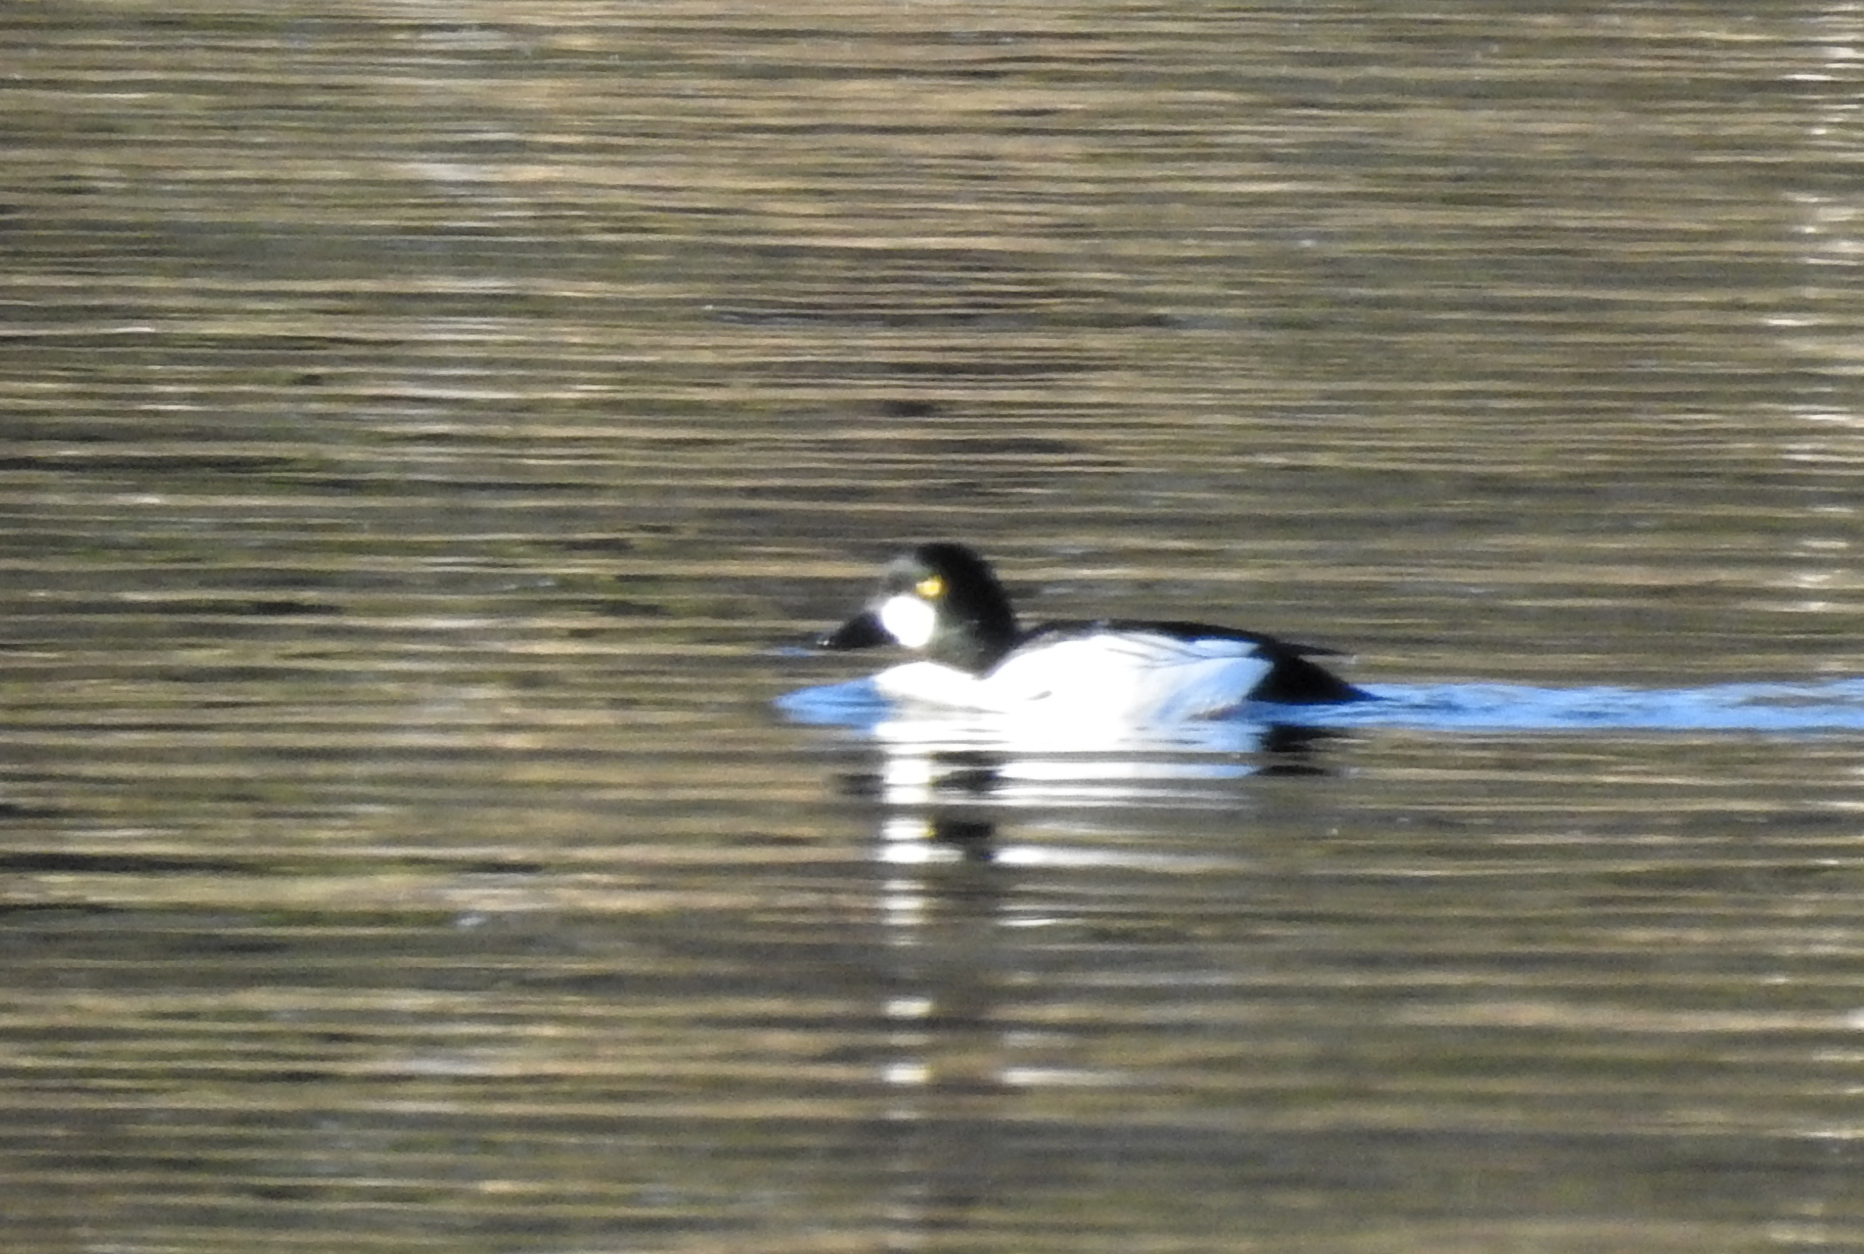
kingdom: Animalia
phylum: Chordata
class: Aves
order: Anseriformes
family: Anatidae
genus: Bucephala
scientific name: Bucephala clangula
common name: Common goldeneye
